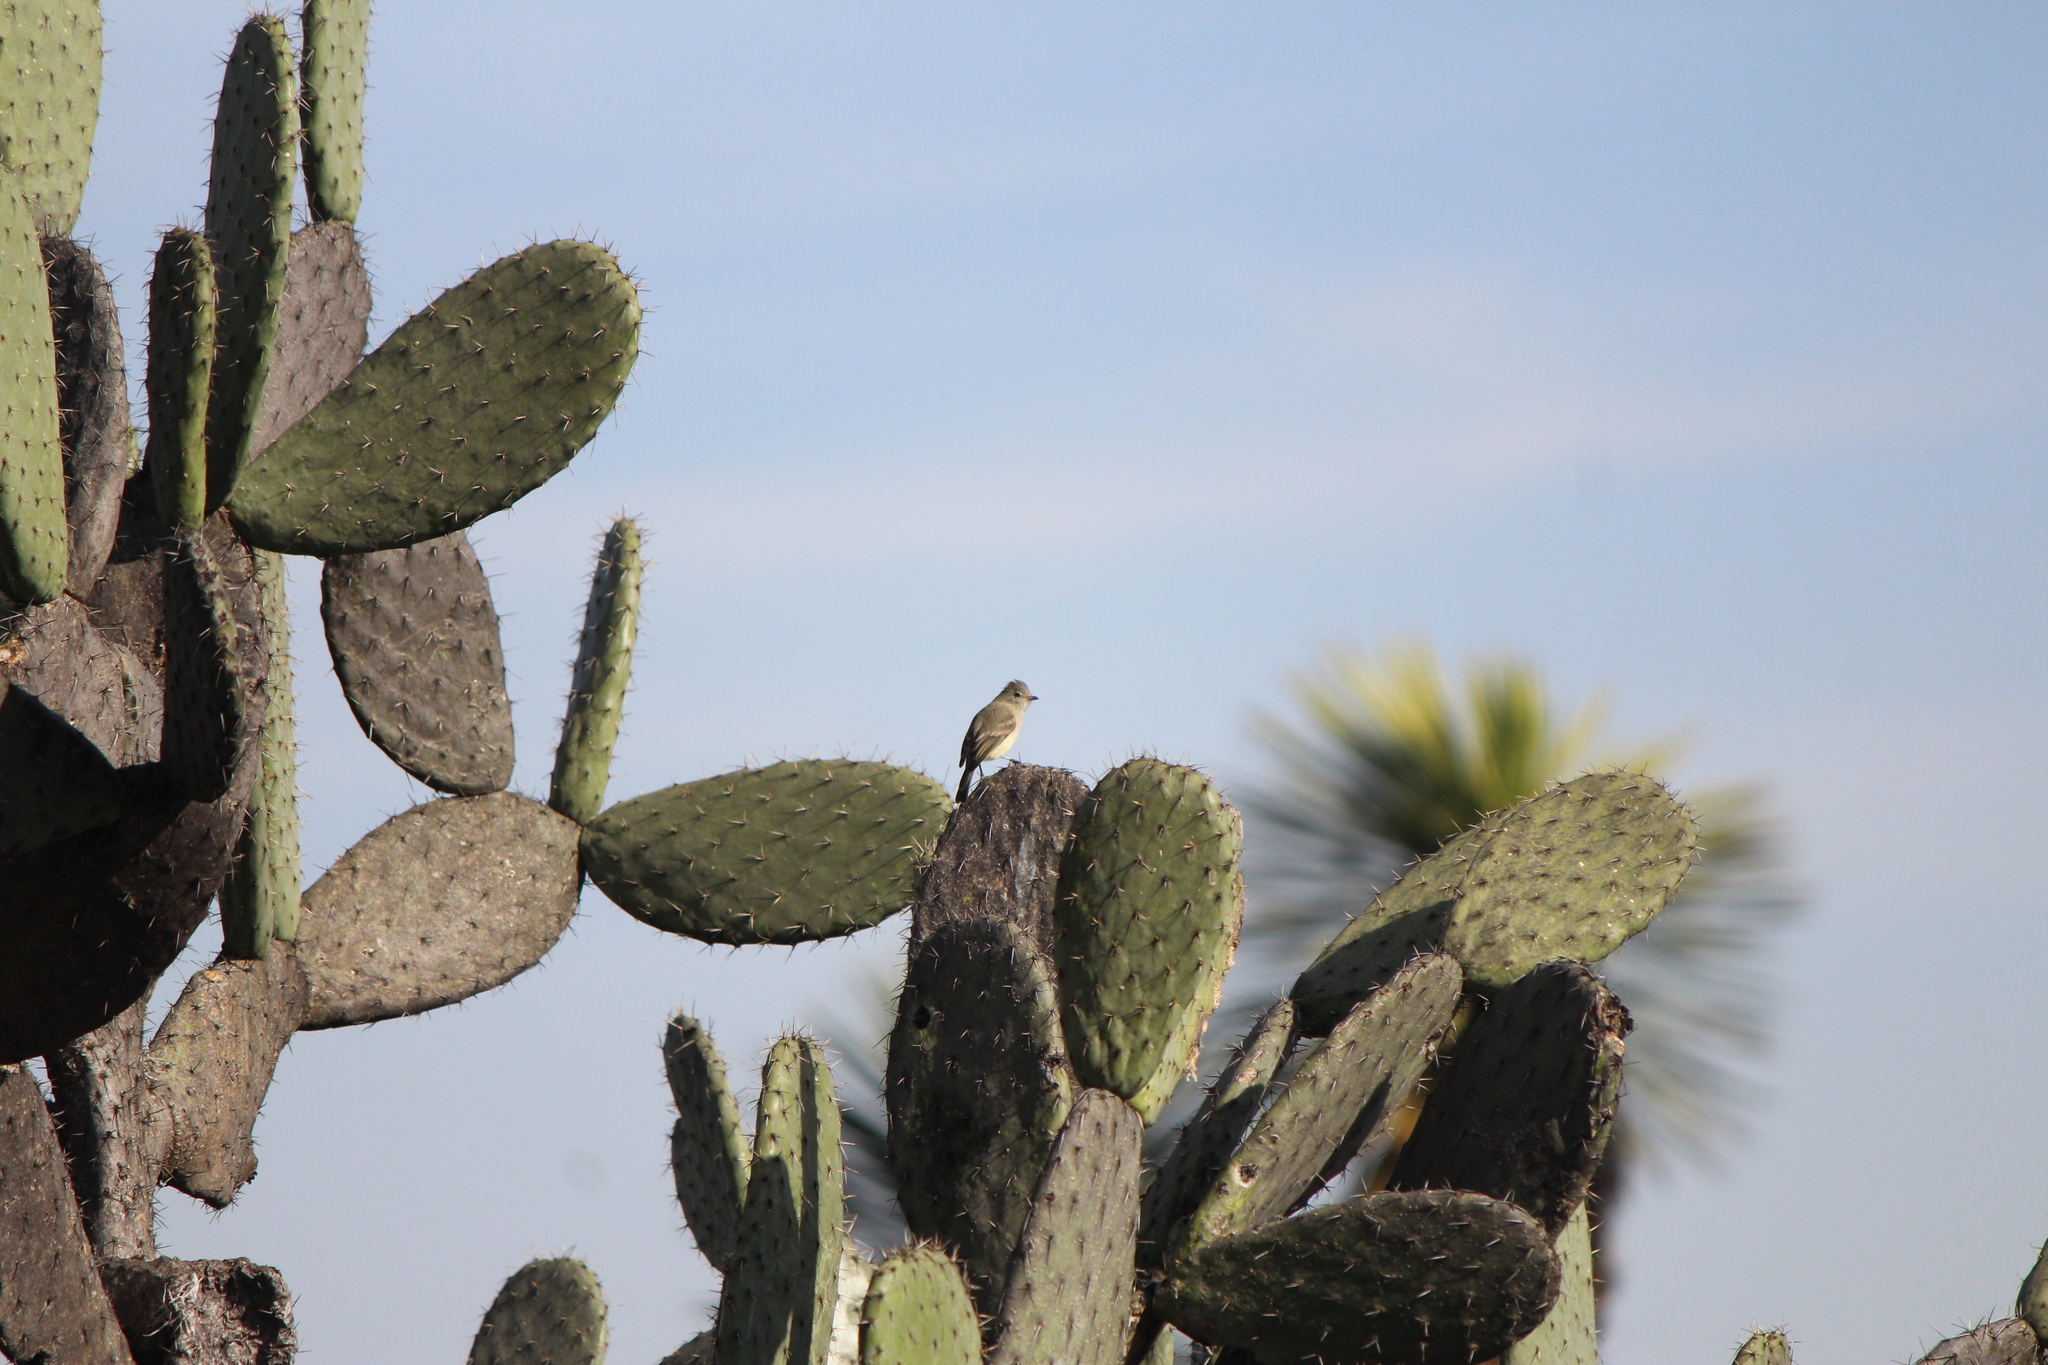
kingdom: Animalia
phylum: Chordata
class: Aves
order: Passeriformes
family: Tyrannidae
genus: Camptostoma
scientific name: Camptostoma imberbe
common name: Northern beardless-tyrannulet
